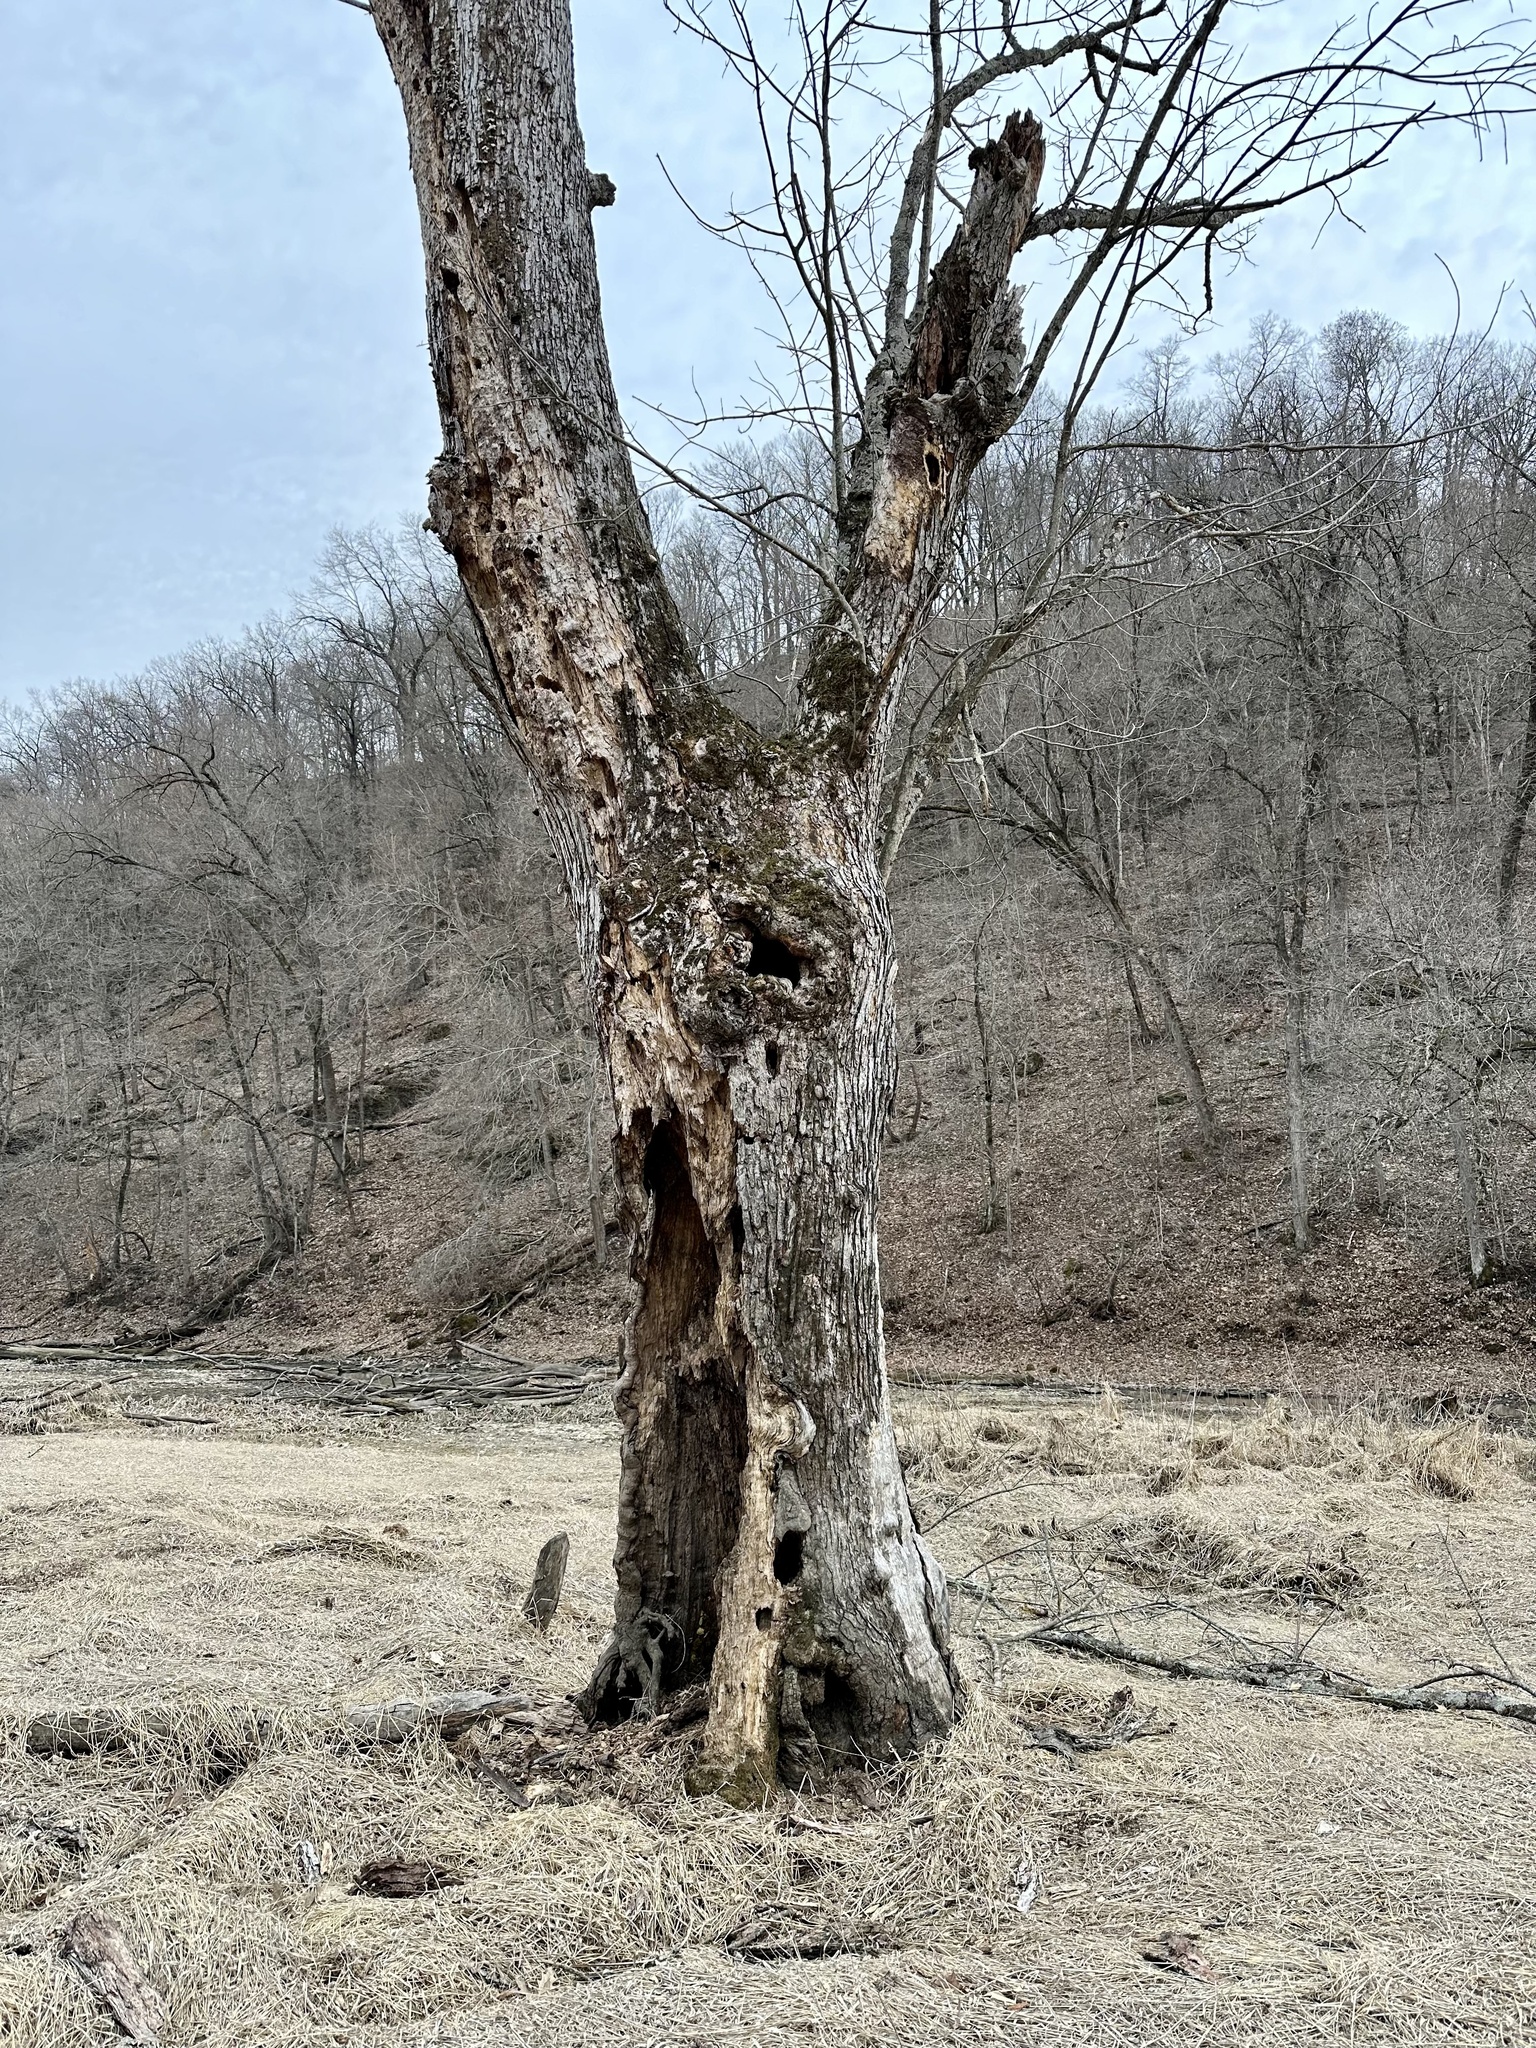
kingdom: Plantae
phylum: Tracheophyta
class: Magnoliopsida
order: Sapindales
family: Sapindaceae
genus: Acer
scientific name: Acer saccharinum
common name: Silver maple
